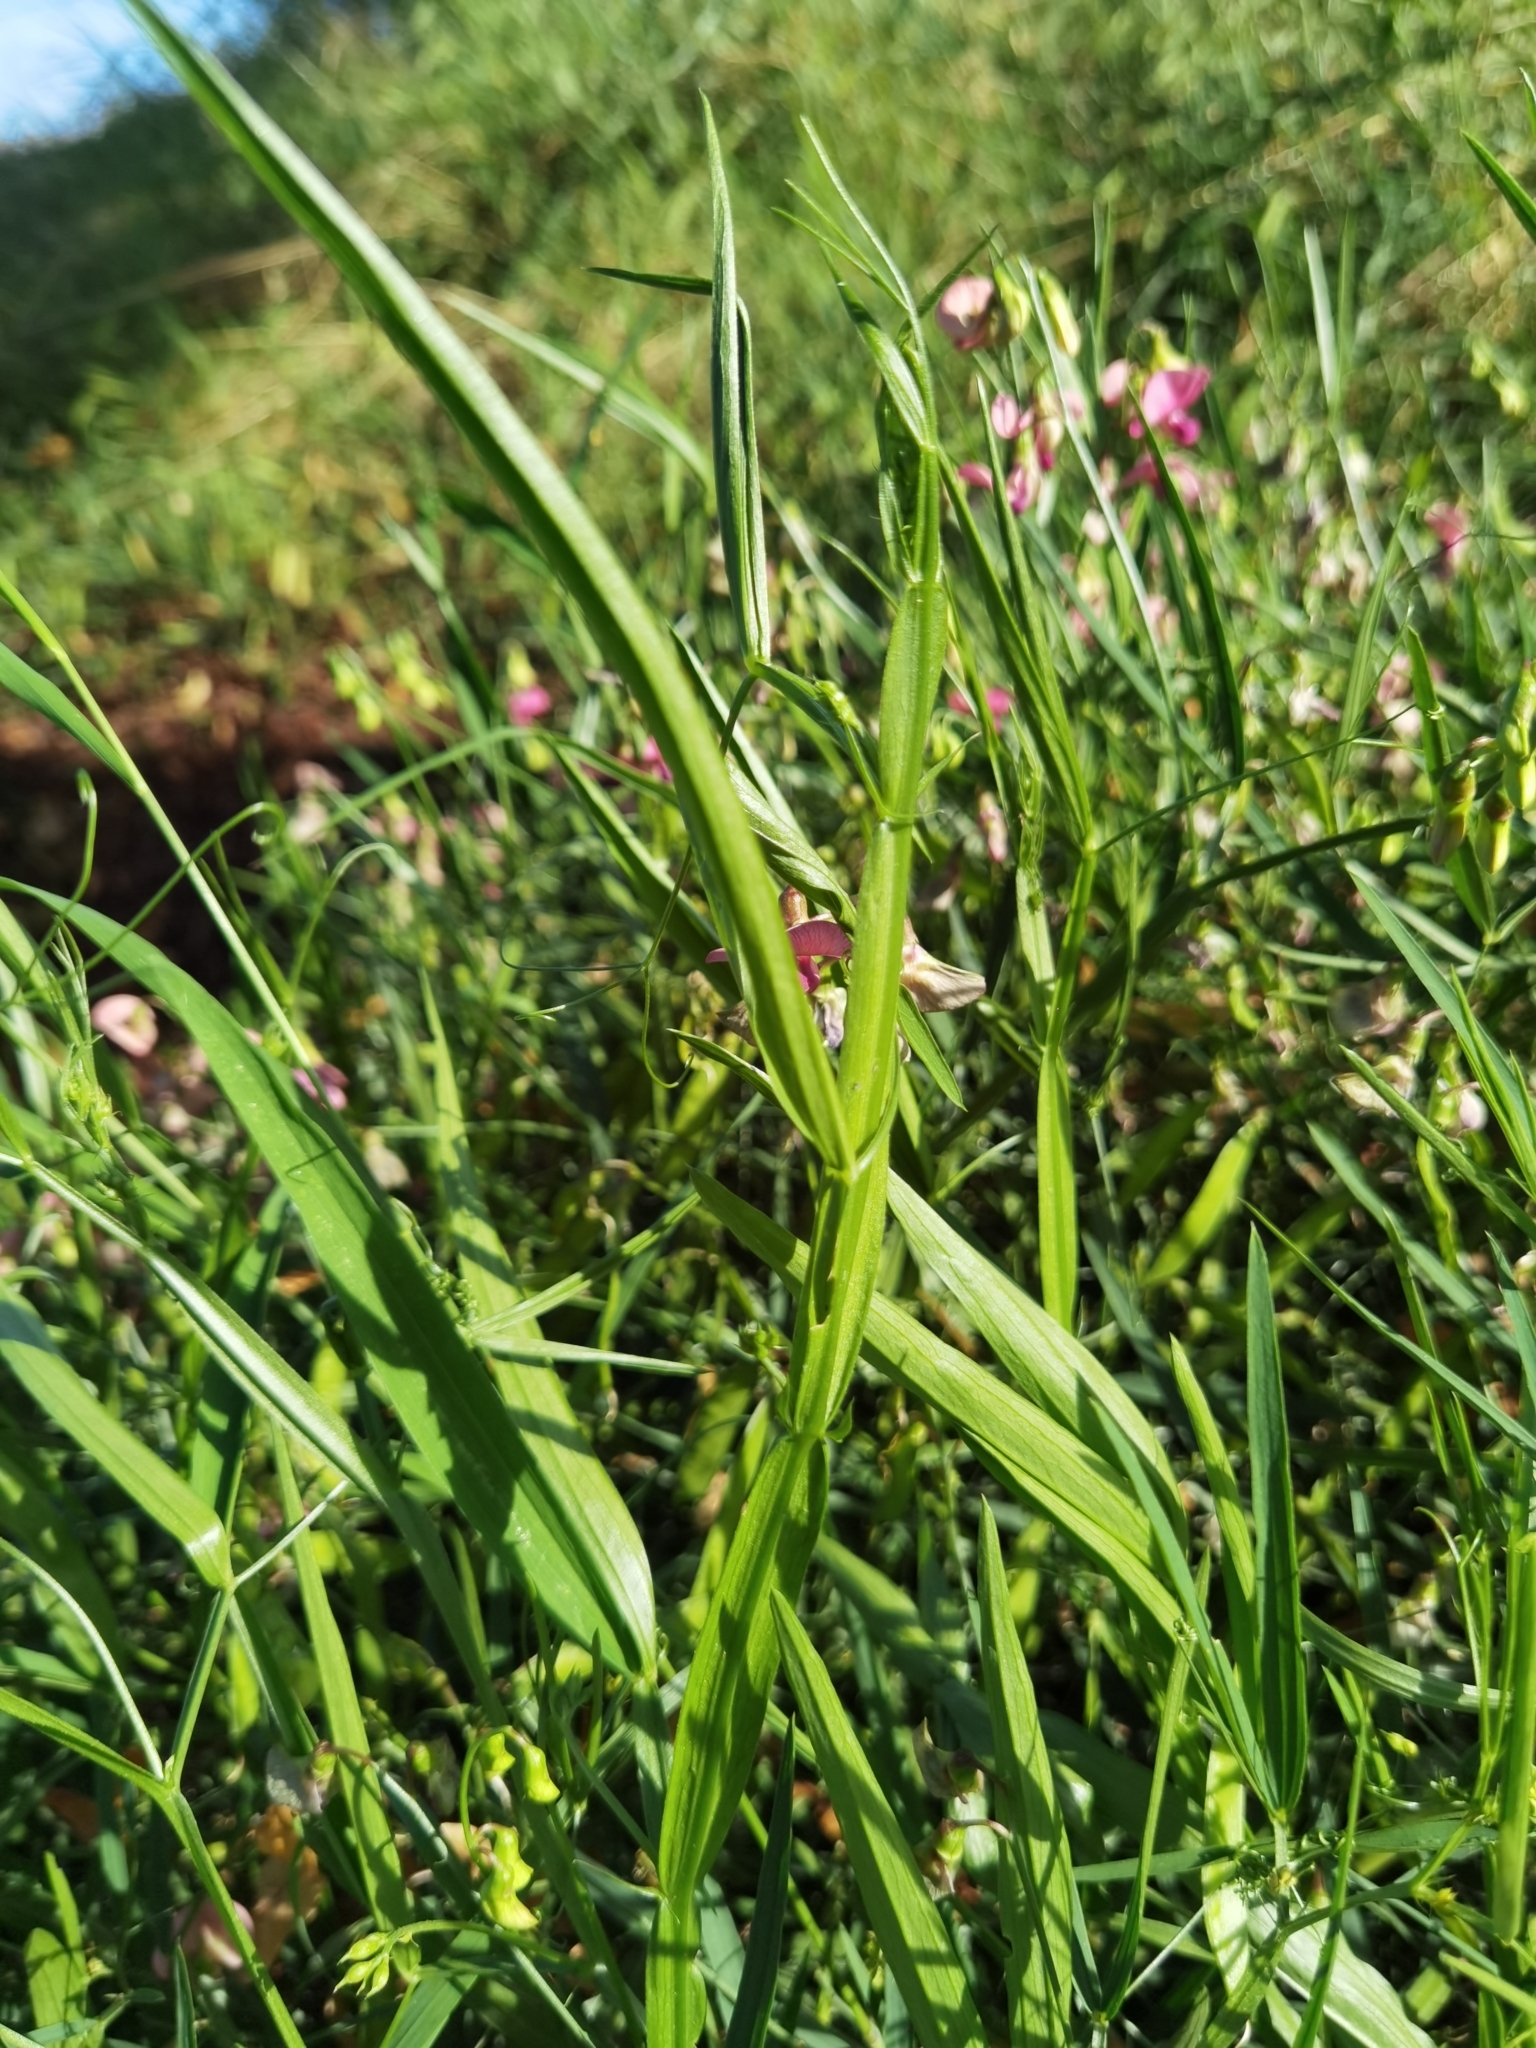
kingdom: Plantae
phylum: Tracheophyta
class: Magnoliopsida
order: Fabales
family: Fabaceae
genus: Lathyrus
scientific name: Lathyrus sylvestris
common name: Flat pea
